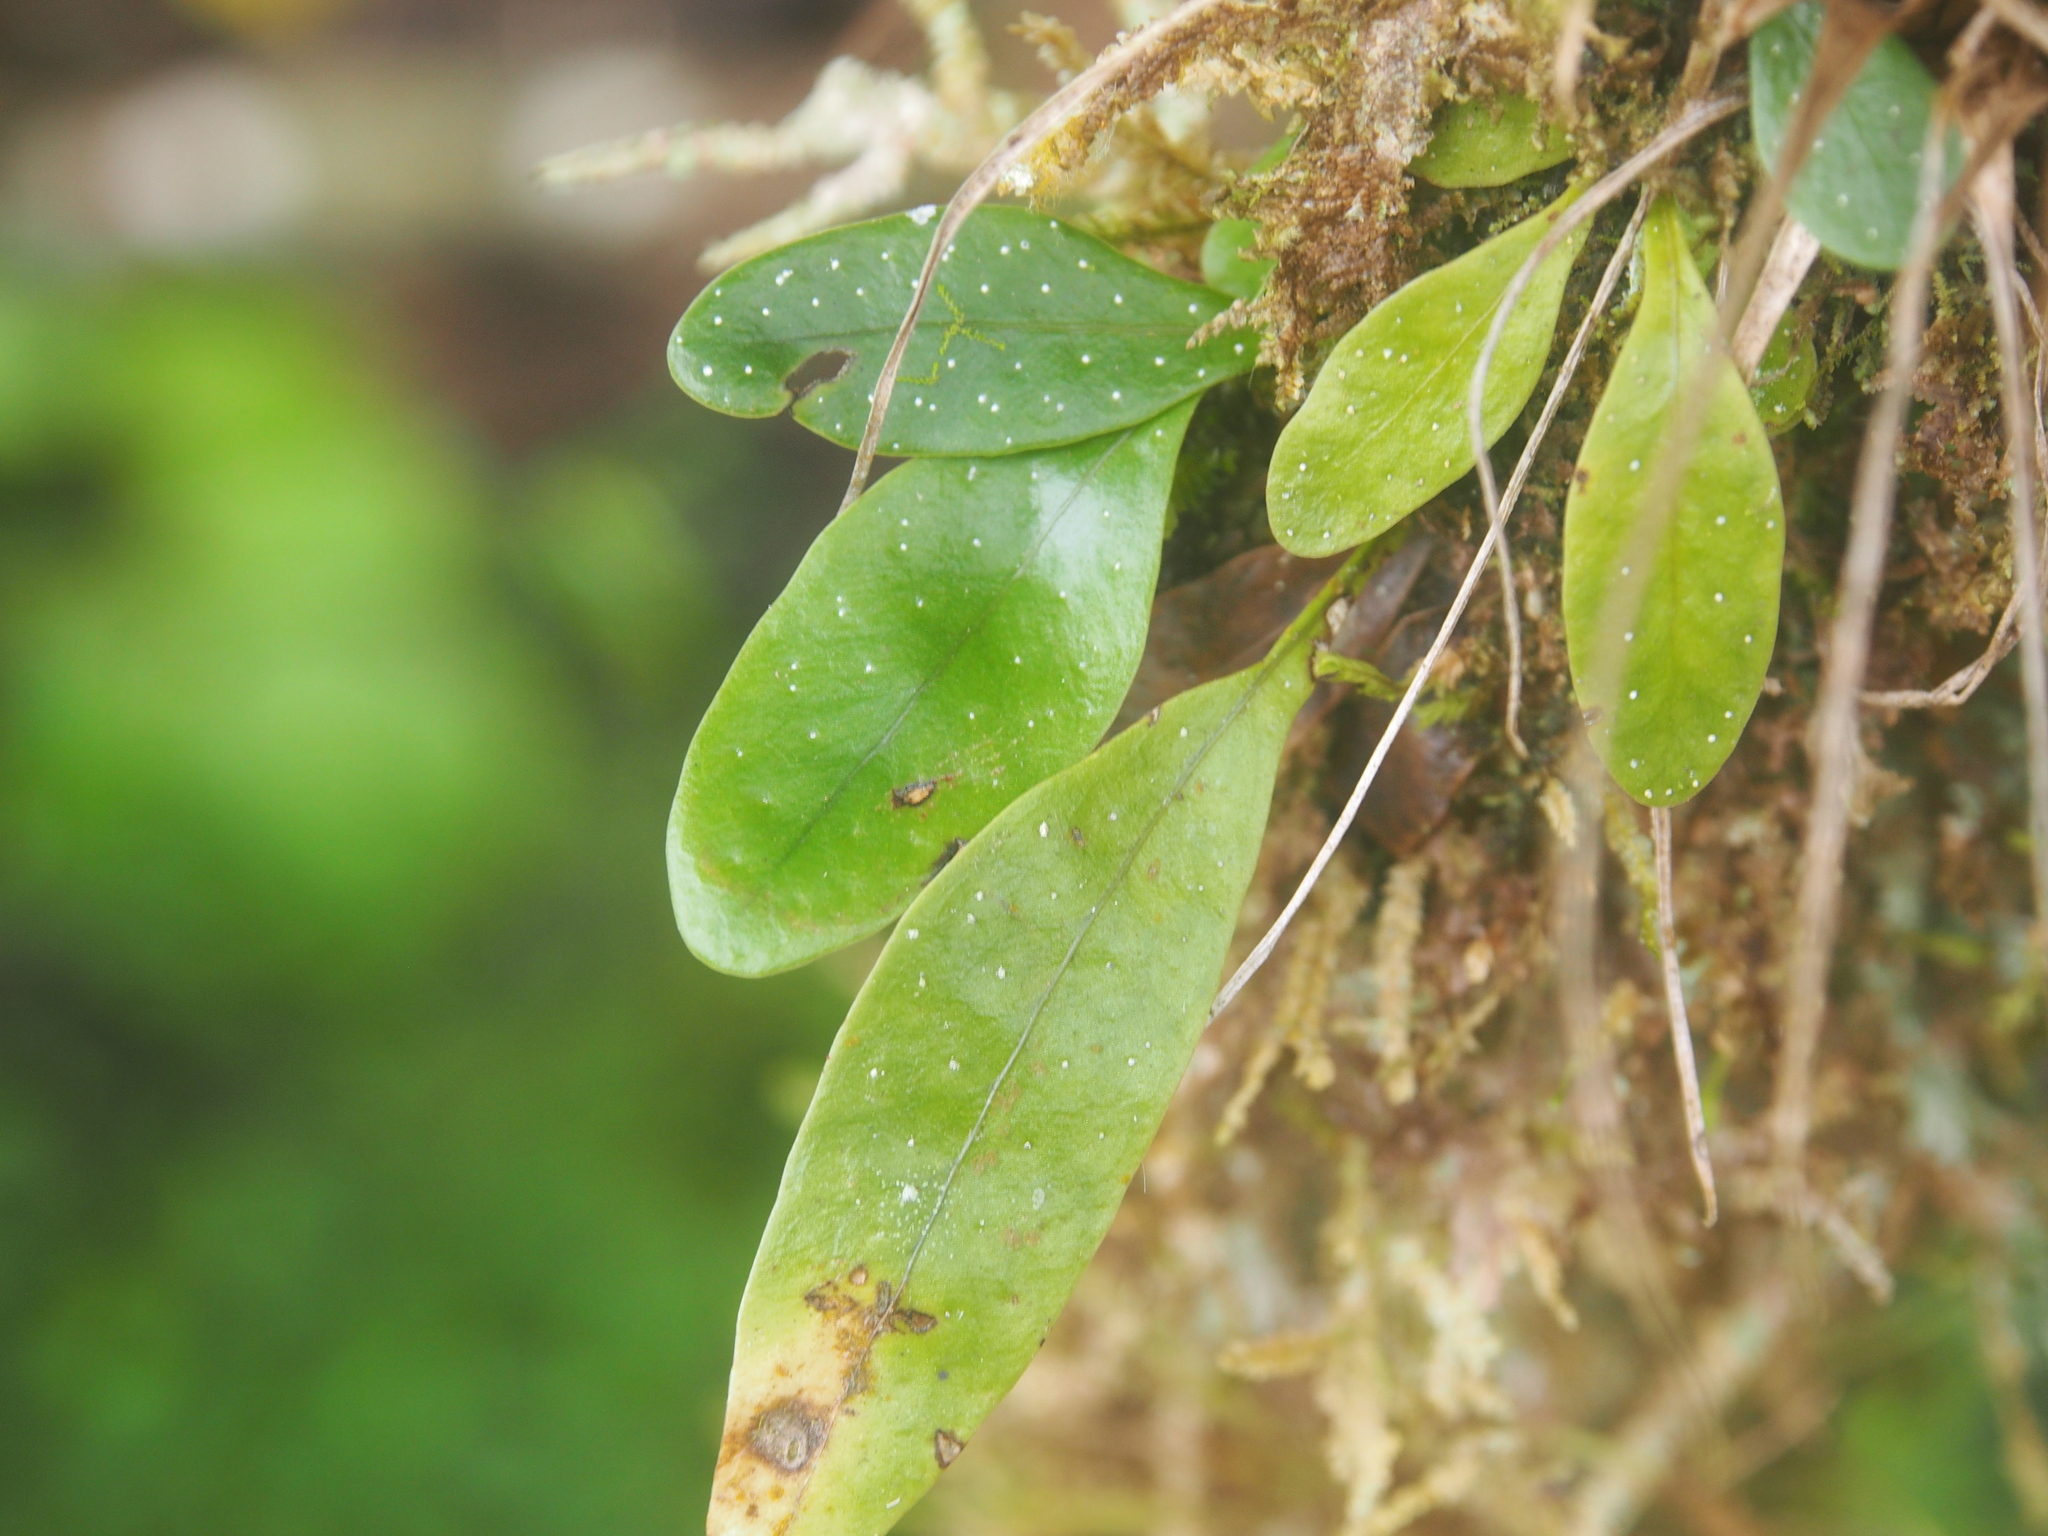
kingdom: Plantae
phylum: Tracheophyta
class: Polypodiopsida
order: Polypodiales
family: Polypodiaceae
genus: Campyloneurum
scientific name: Campyloneurum brevifolium
